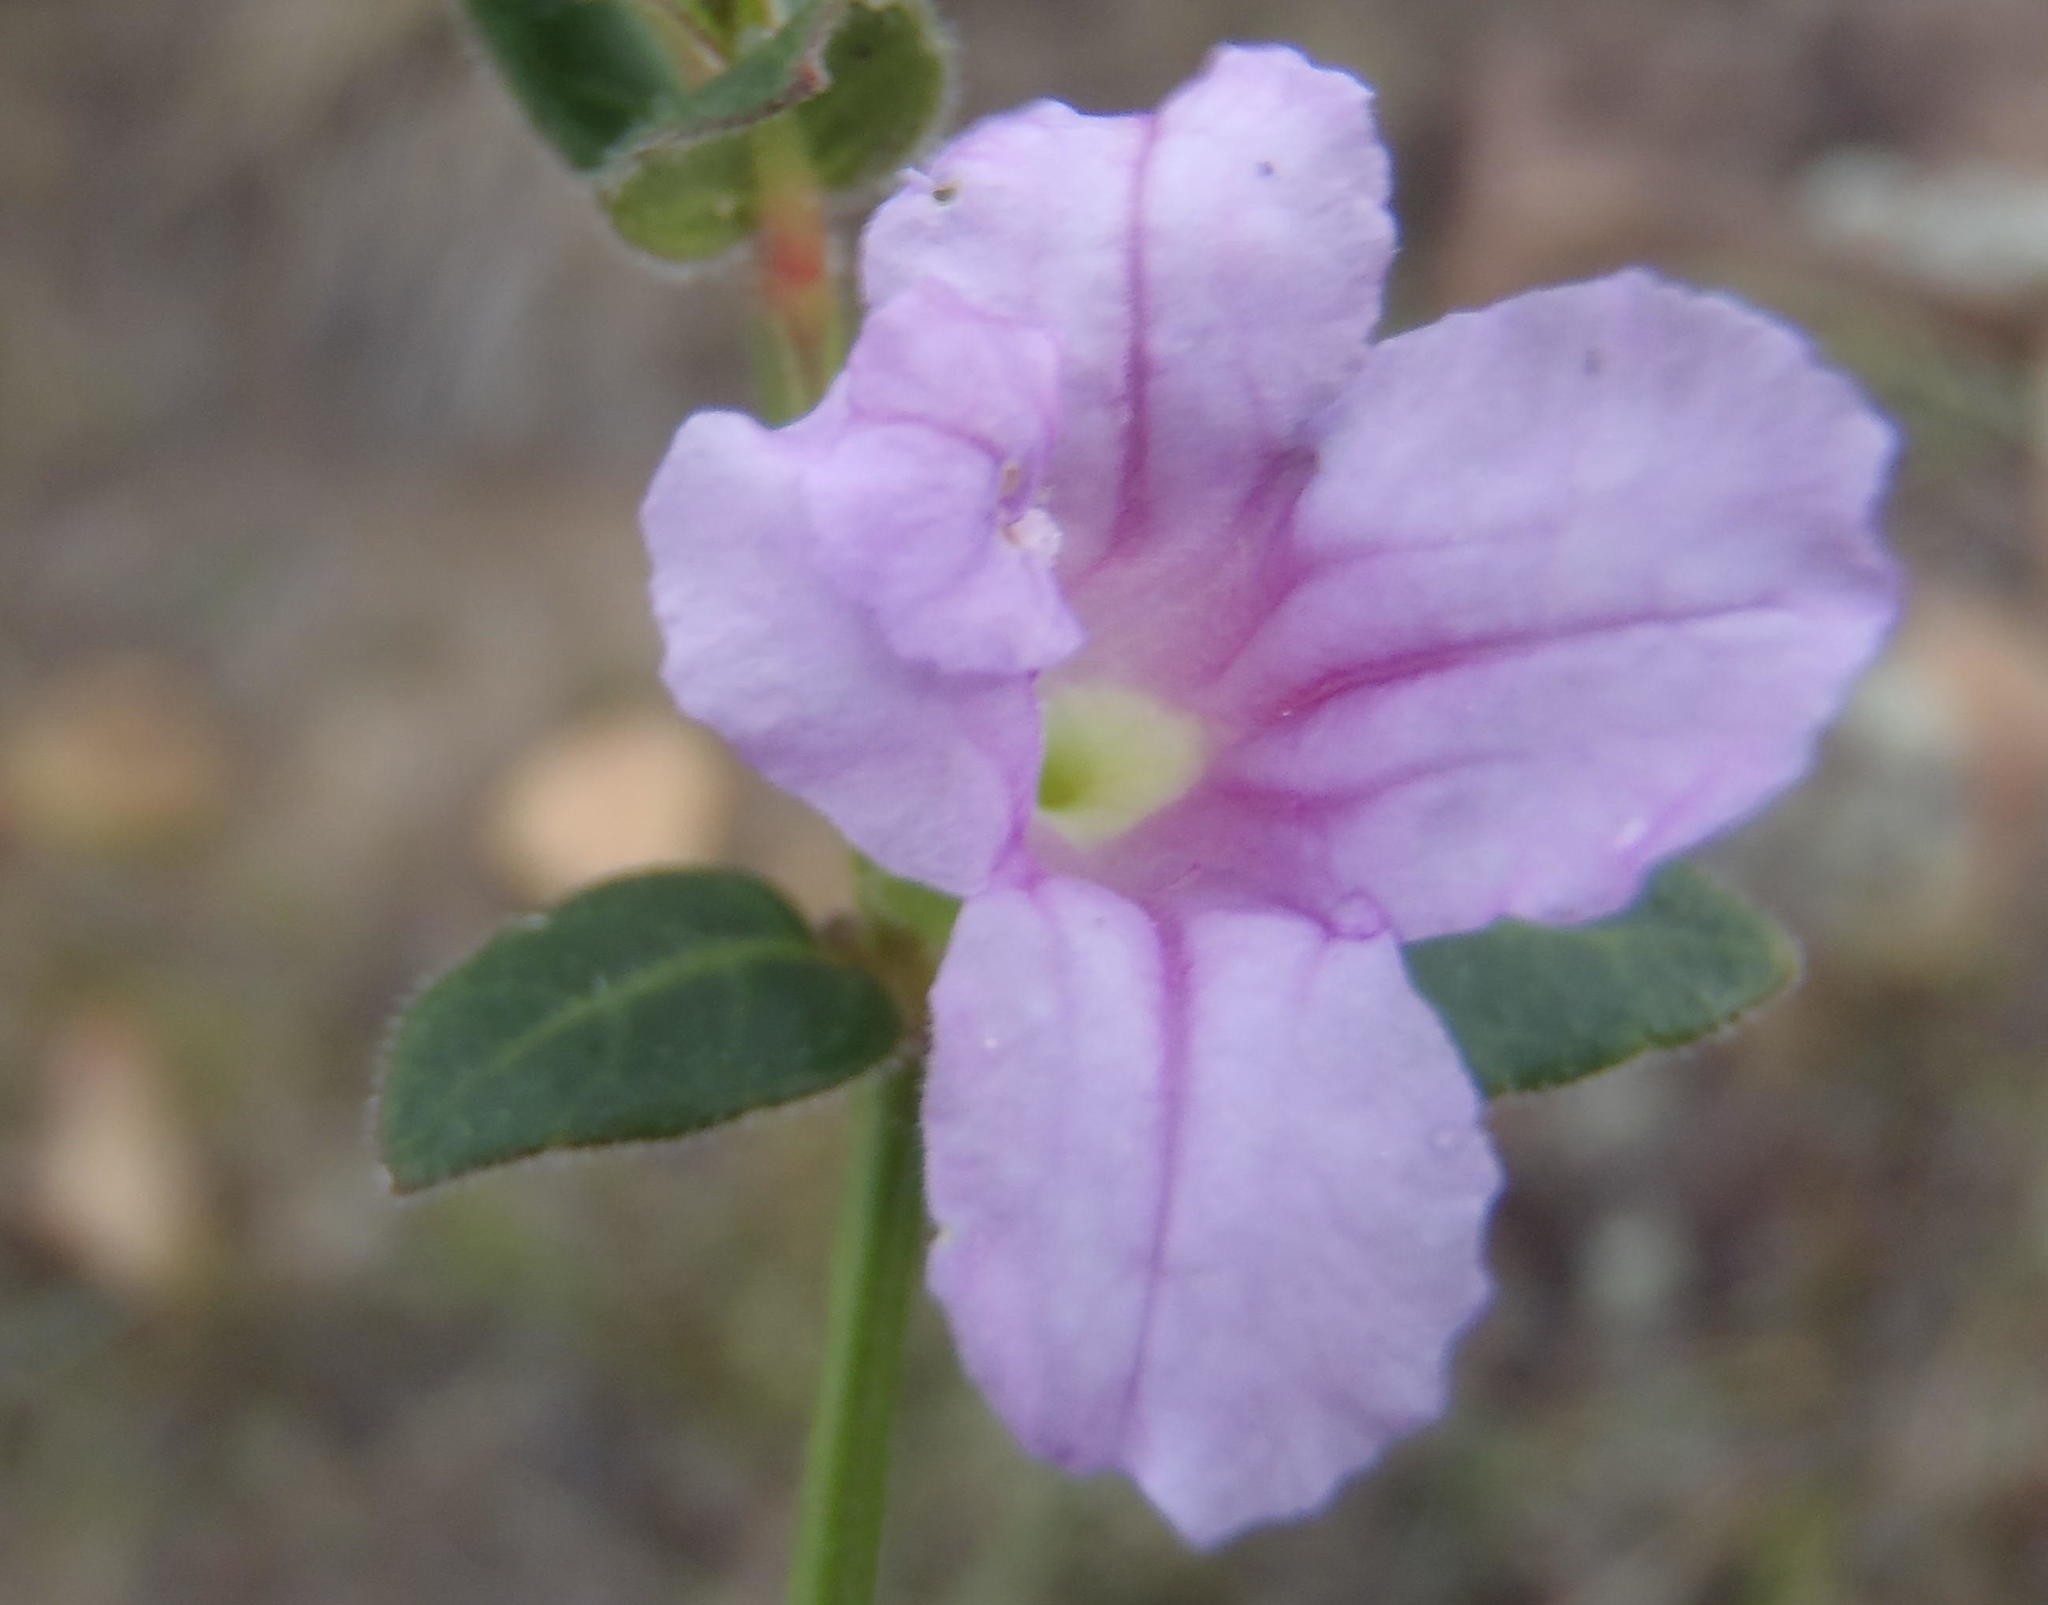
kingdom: Plantae
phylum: Tracheophyta
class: Magnoliopsida
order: Lamiales
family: Acanthaceae
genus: Ruellia
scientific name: Ruellia cordata
